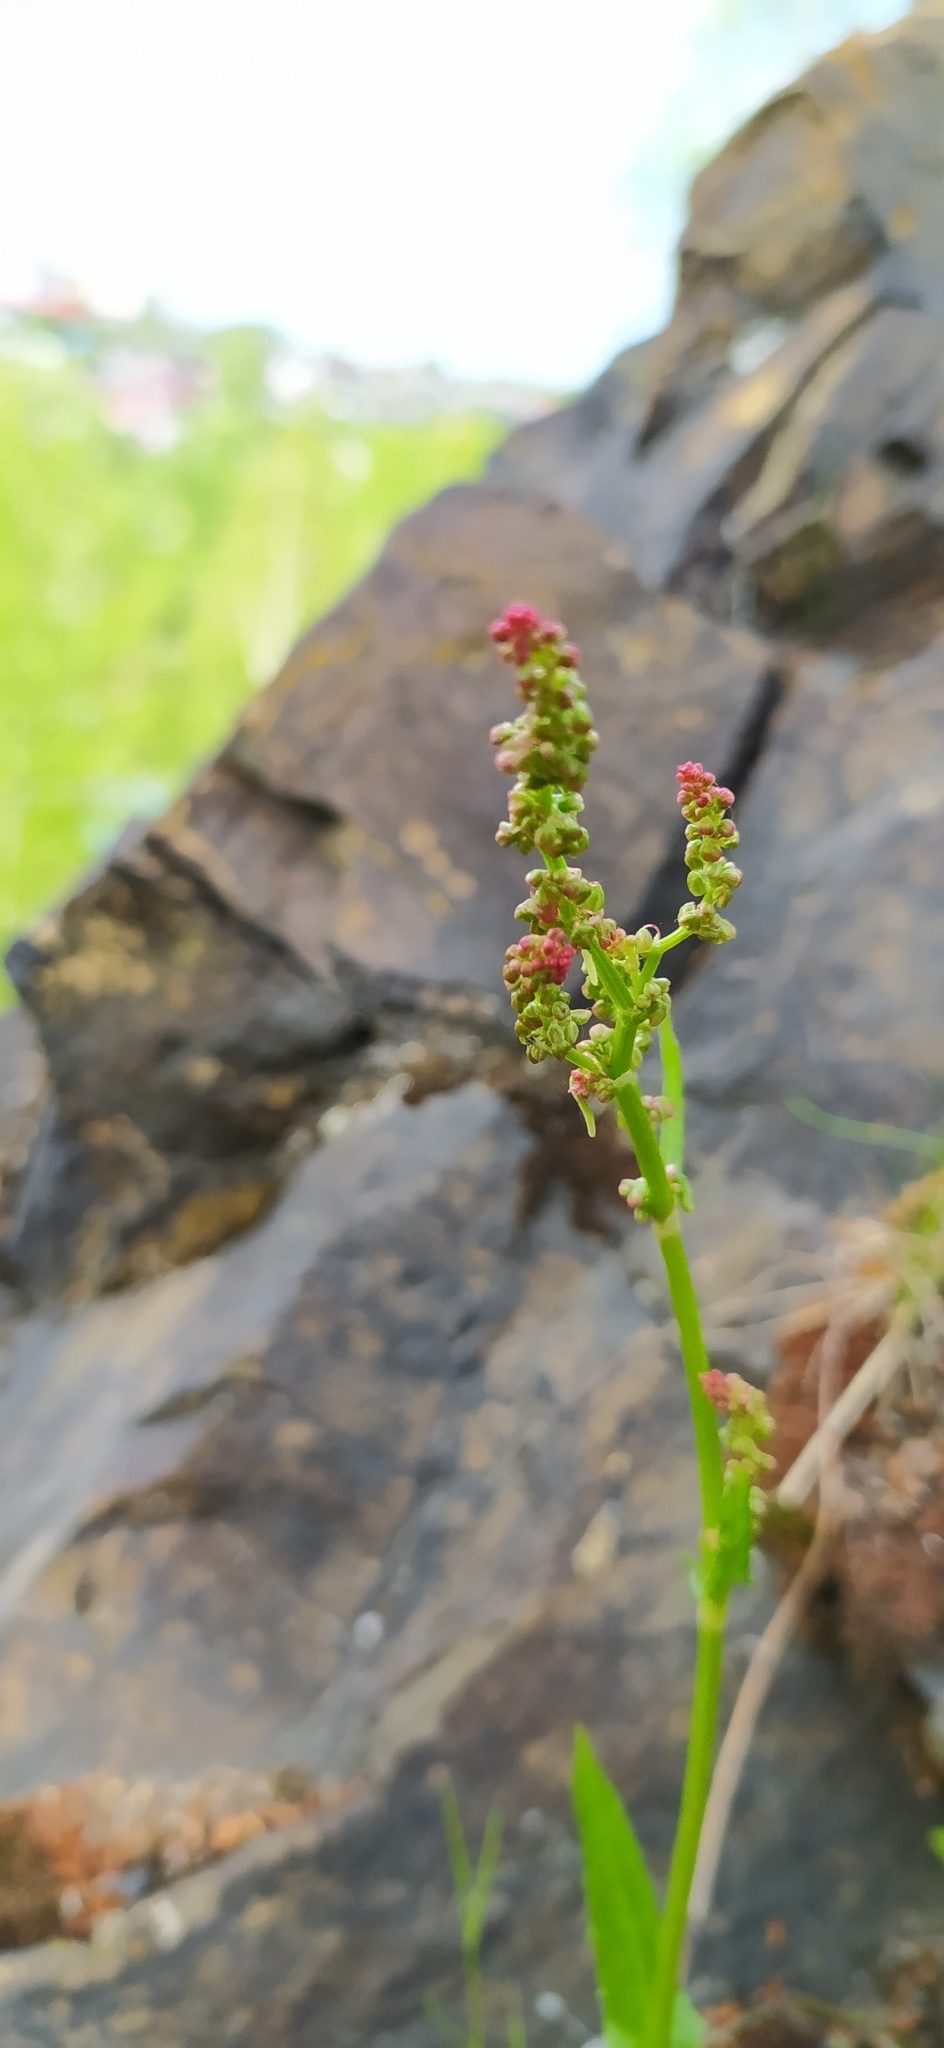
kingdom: Plantae
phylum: Tracheophyta
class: Magnoliopsida
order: Caryophyllales
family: Polygonaceae
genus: Rumex
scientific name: Rumex acetosa
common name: Garden sorrel
